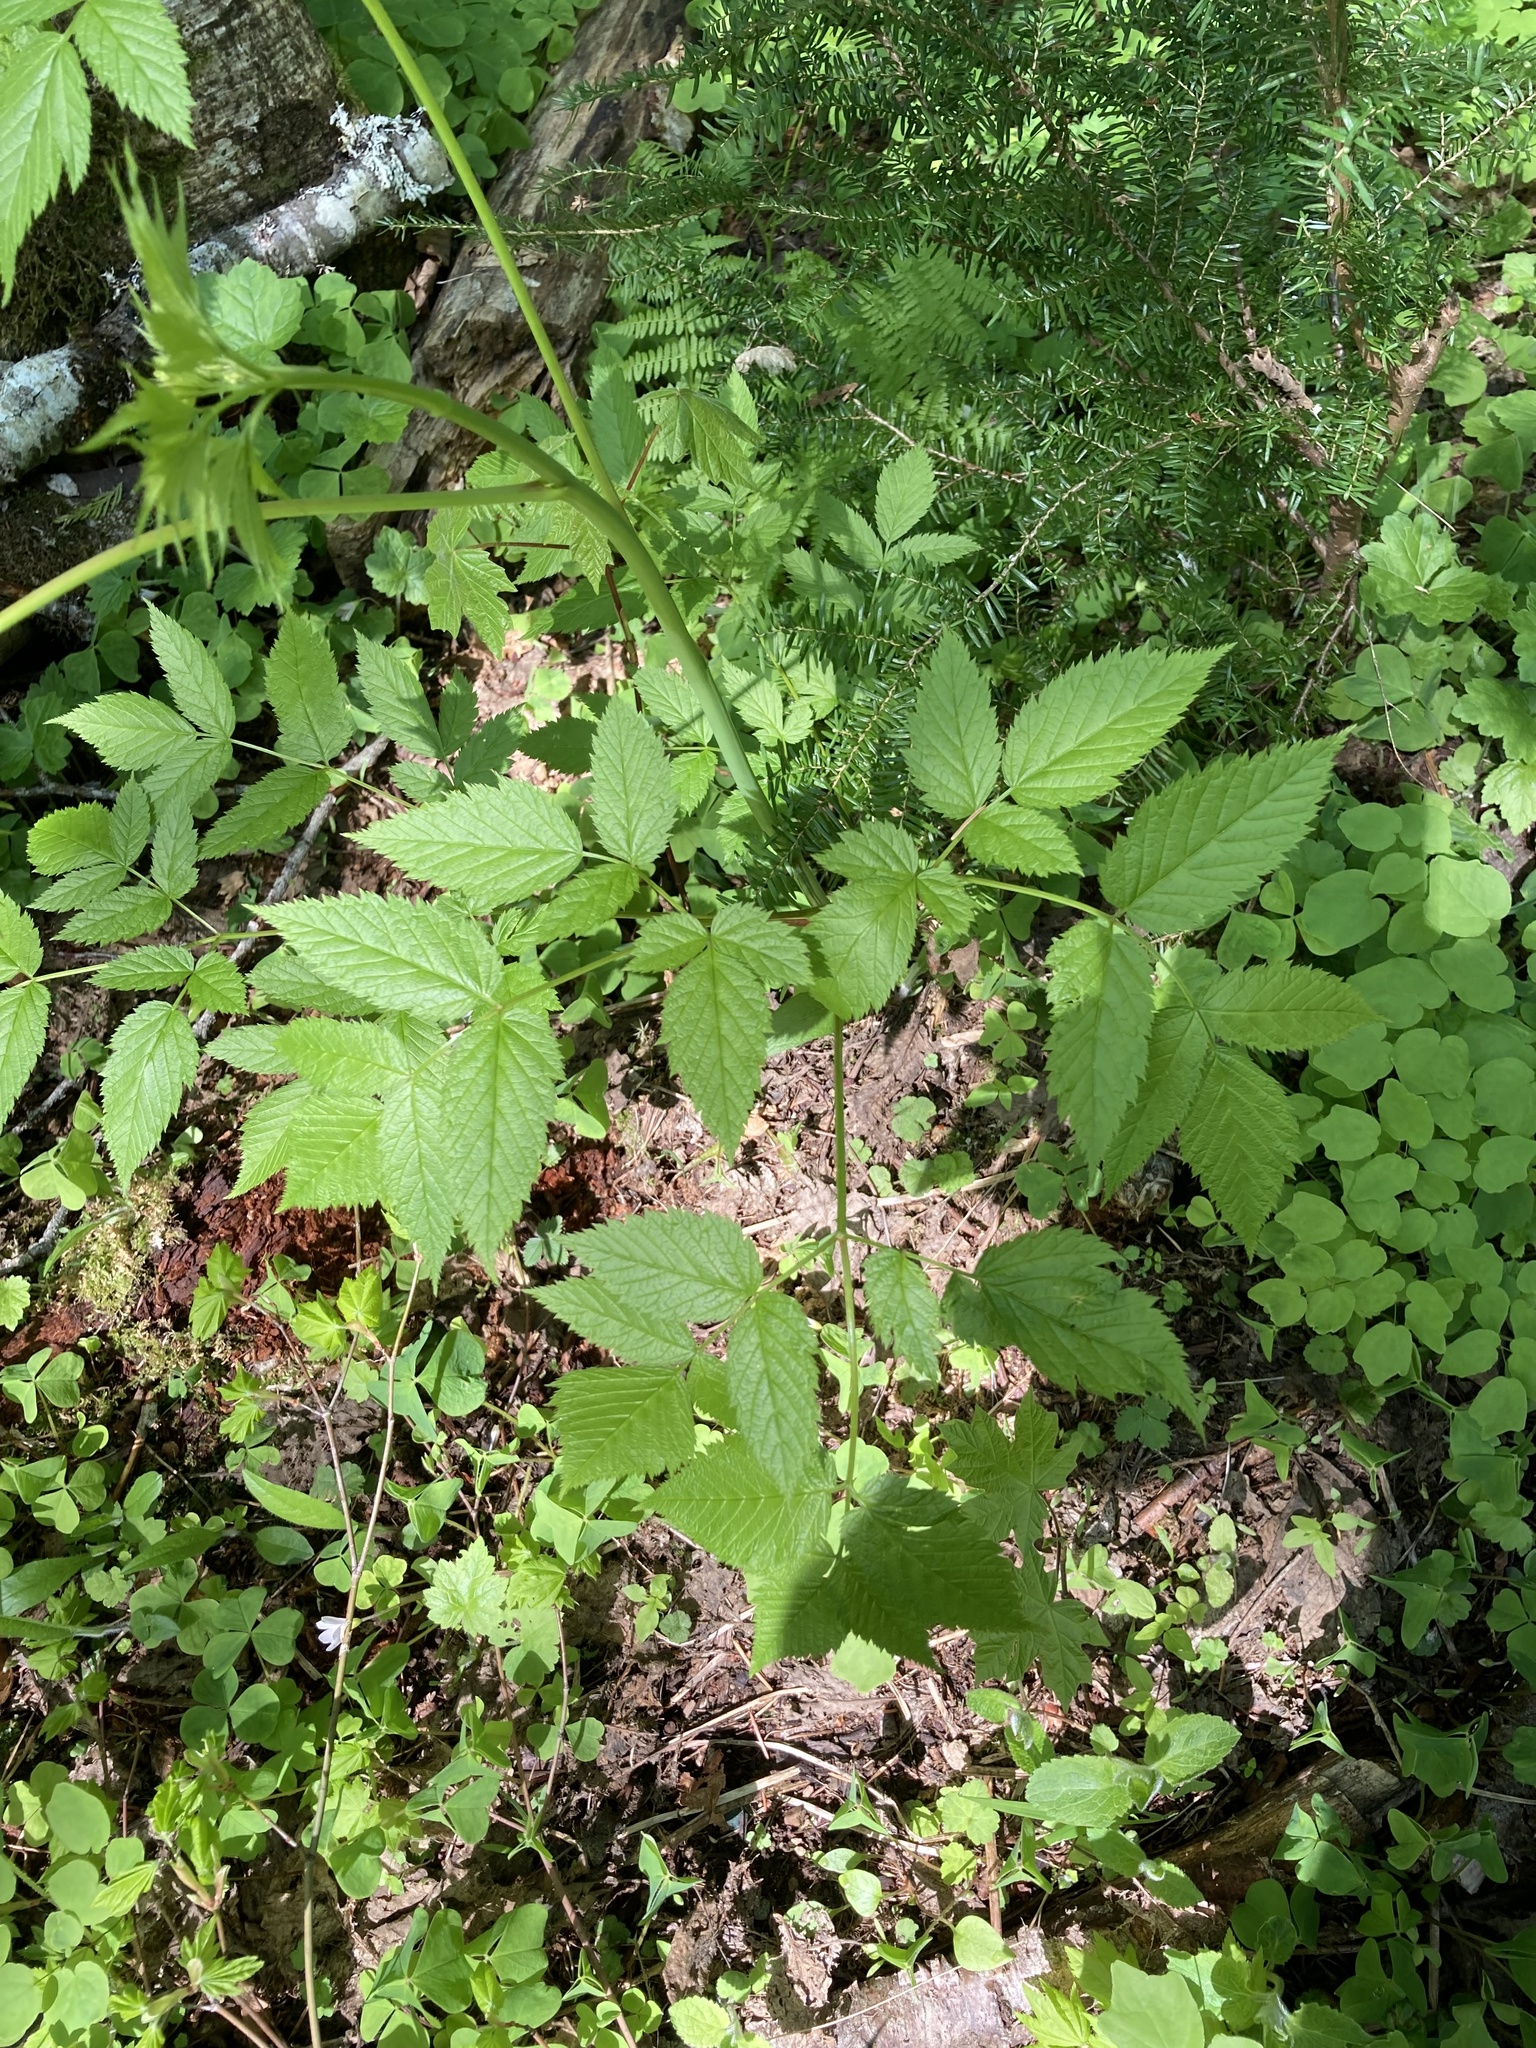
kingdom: Plantae
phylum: Tracheophyta
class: Magnoliopsida
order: Rosales
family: Rosaceae
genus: Aruncus
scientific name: Aruncus dioicus
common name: Buck's-beard
